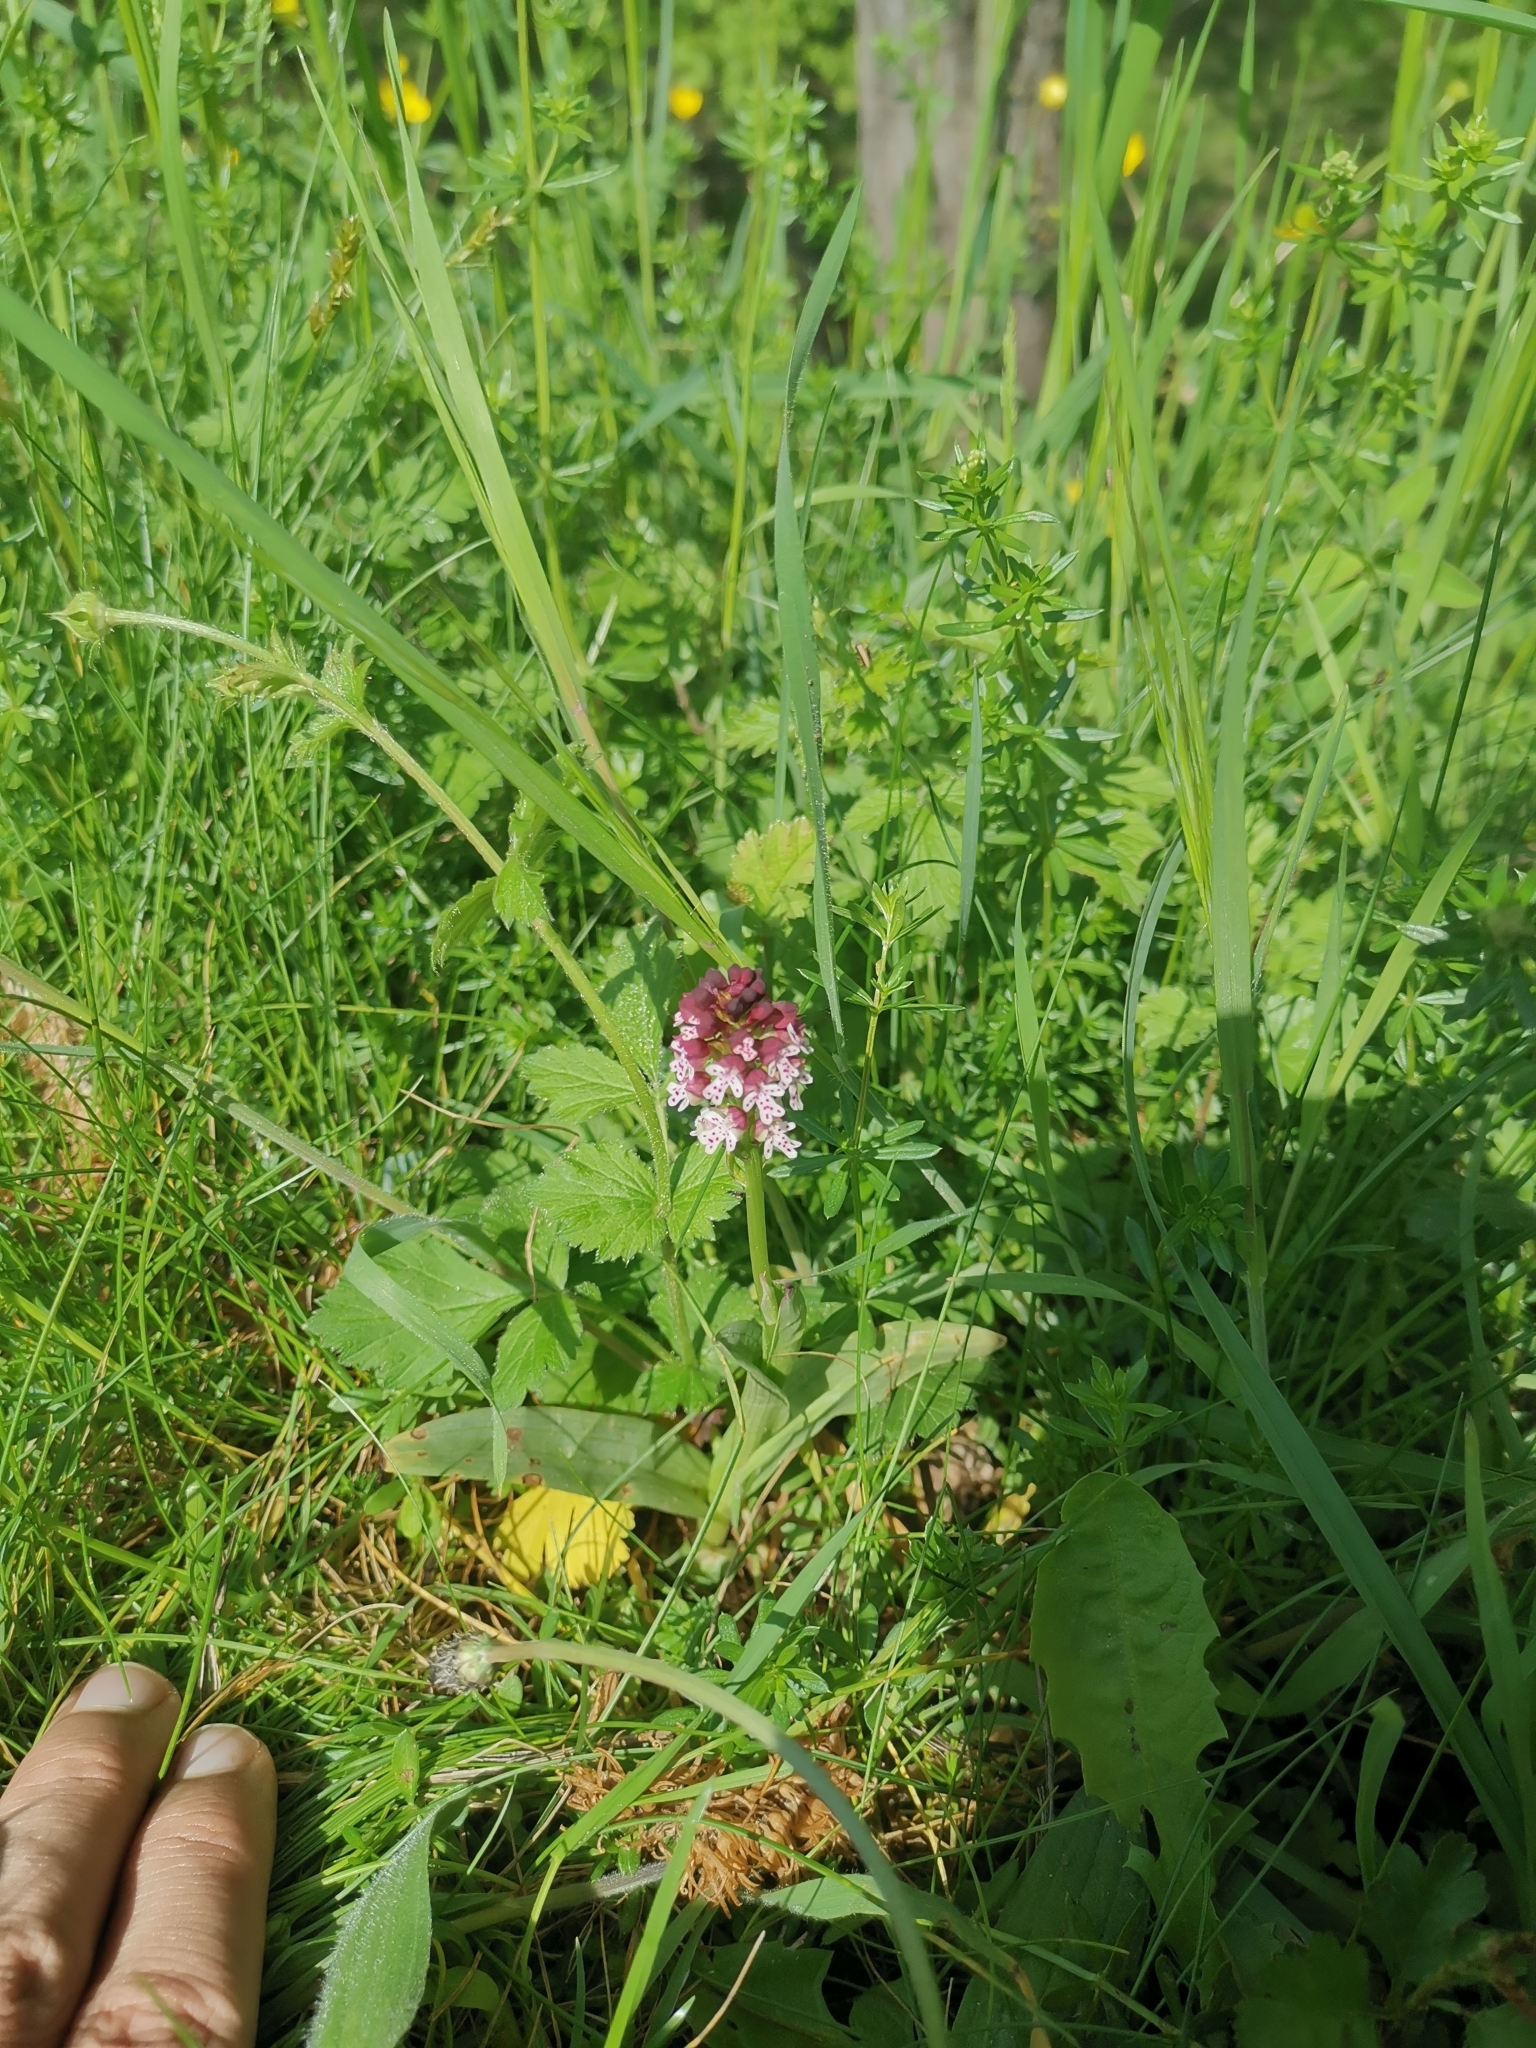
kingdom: Plantae
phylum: Tracheophyta
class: Liliopsida
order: Asparagales
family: Orchidaceae
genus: Neotinea
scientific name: Neotinea ustulata
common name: Burnt orchid
